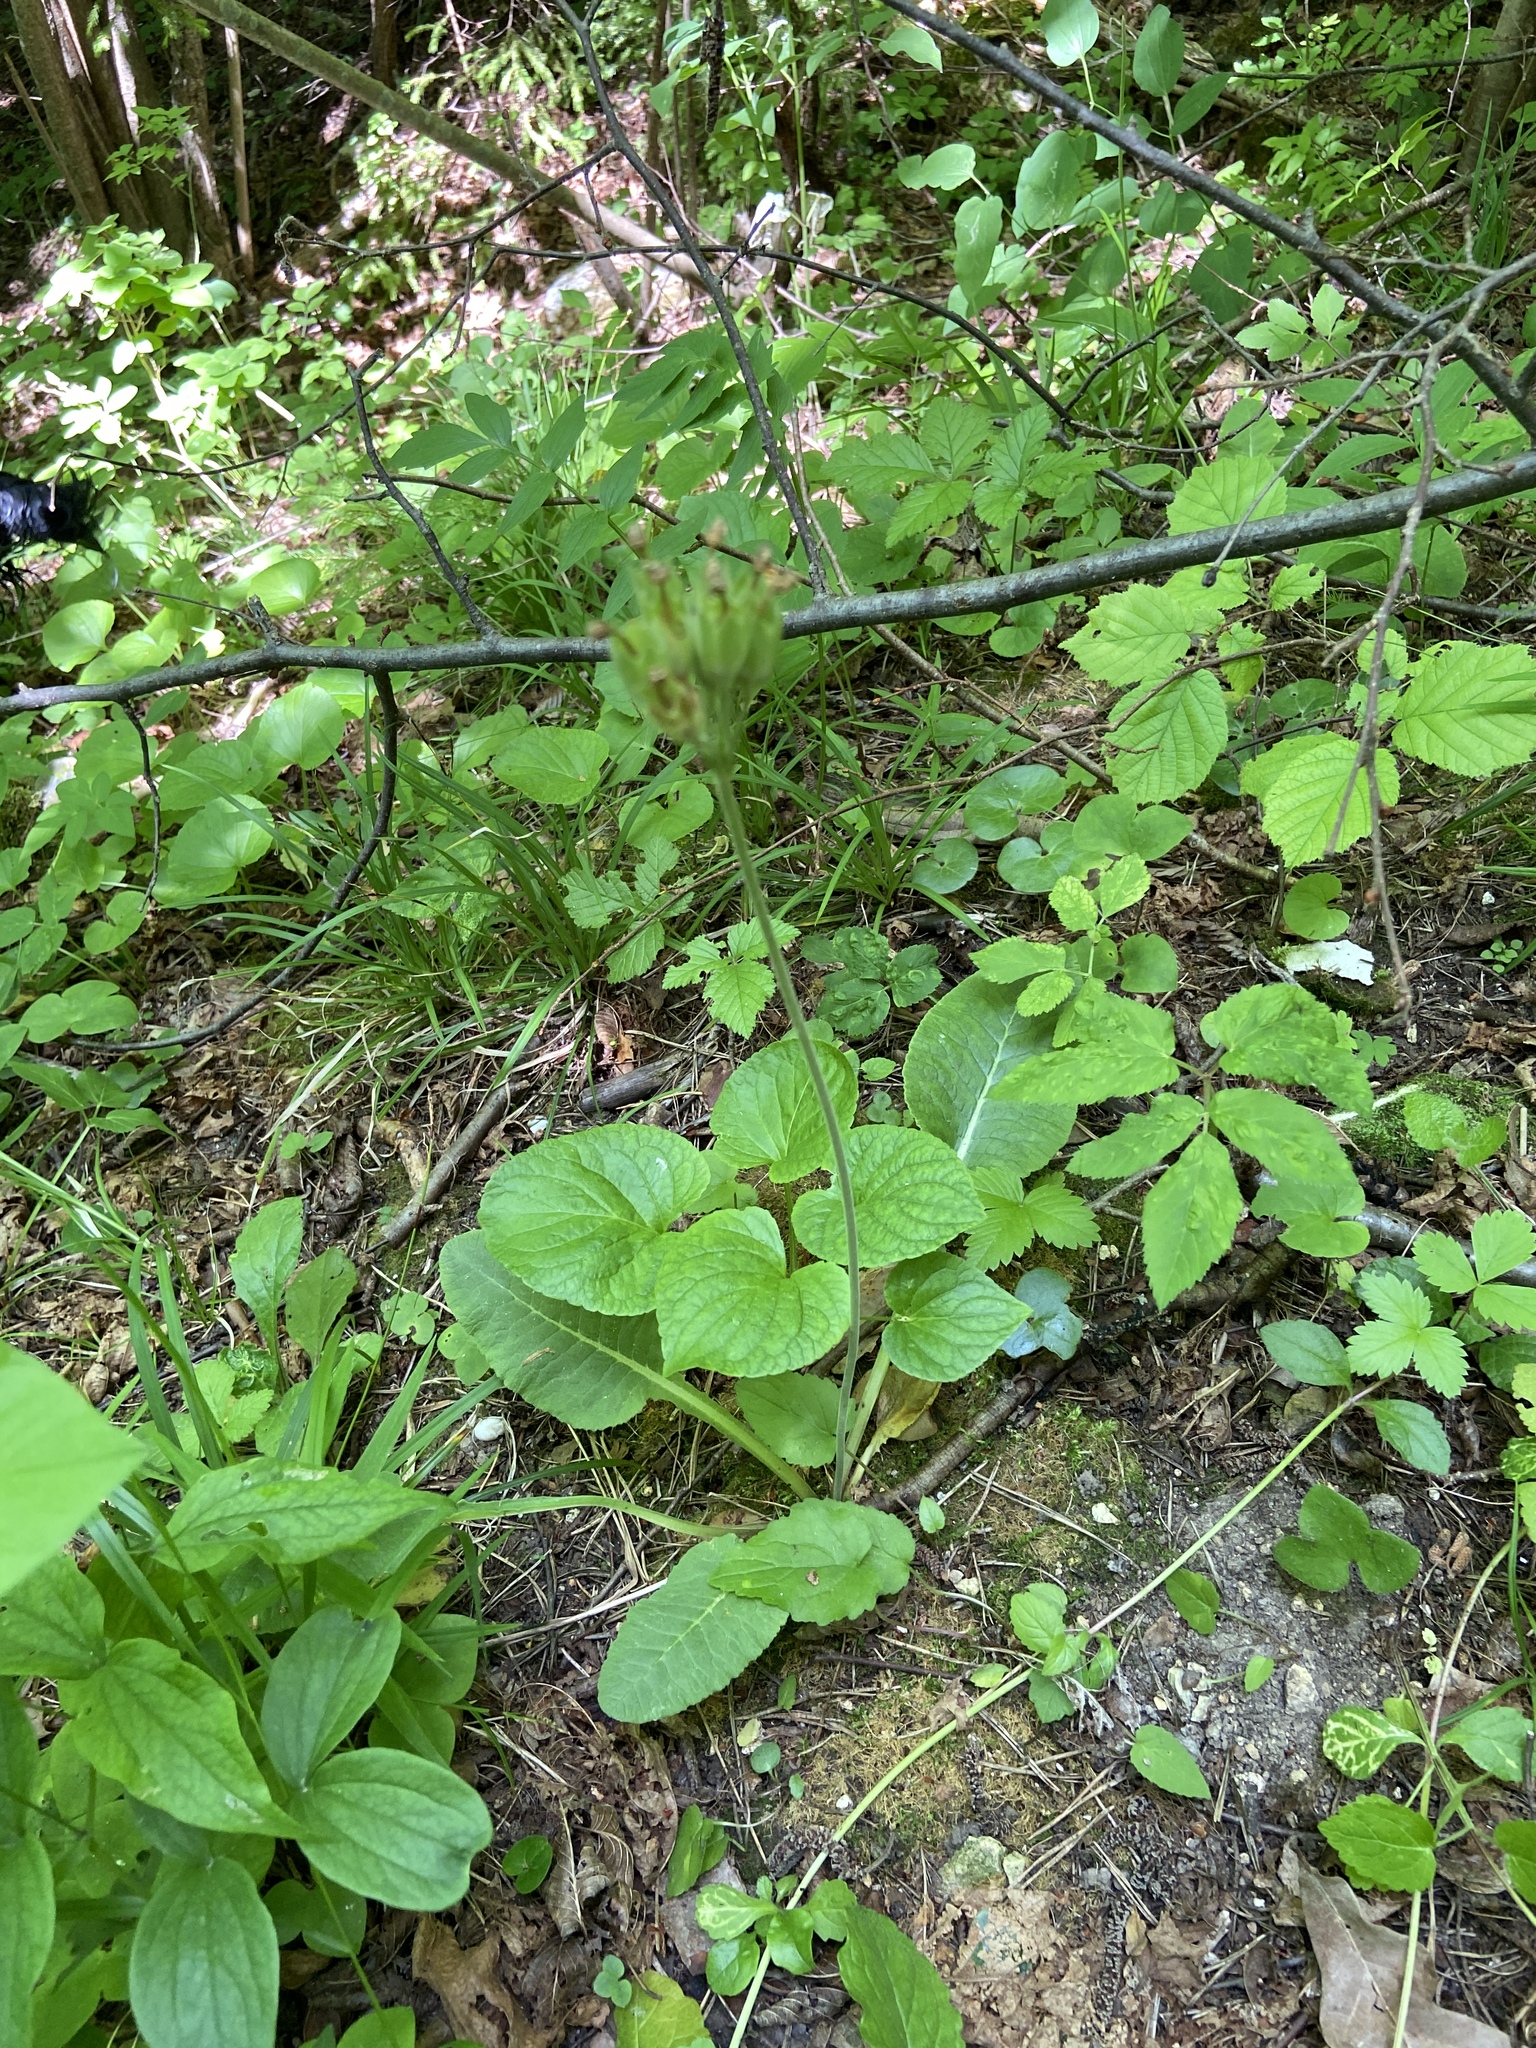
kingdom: Plantae
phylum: Tracheophyta
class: Magnoliopsida
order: Ericales
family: Primulaceae
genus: Primula
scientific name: Primula veris
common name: Cowslip
